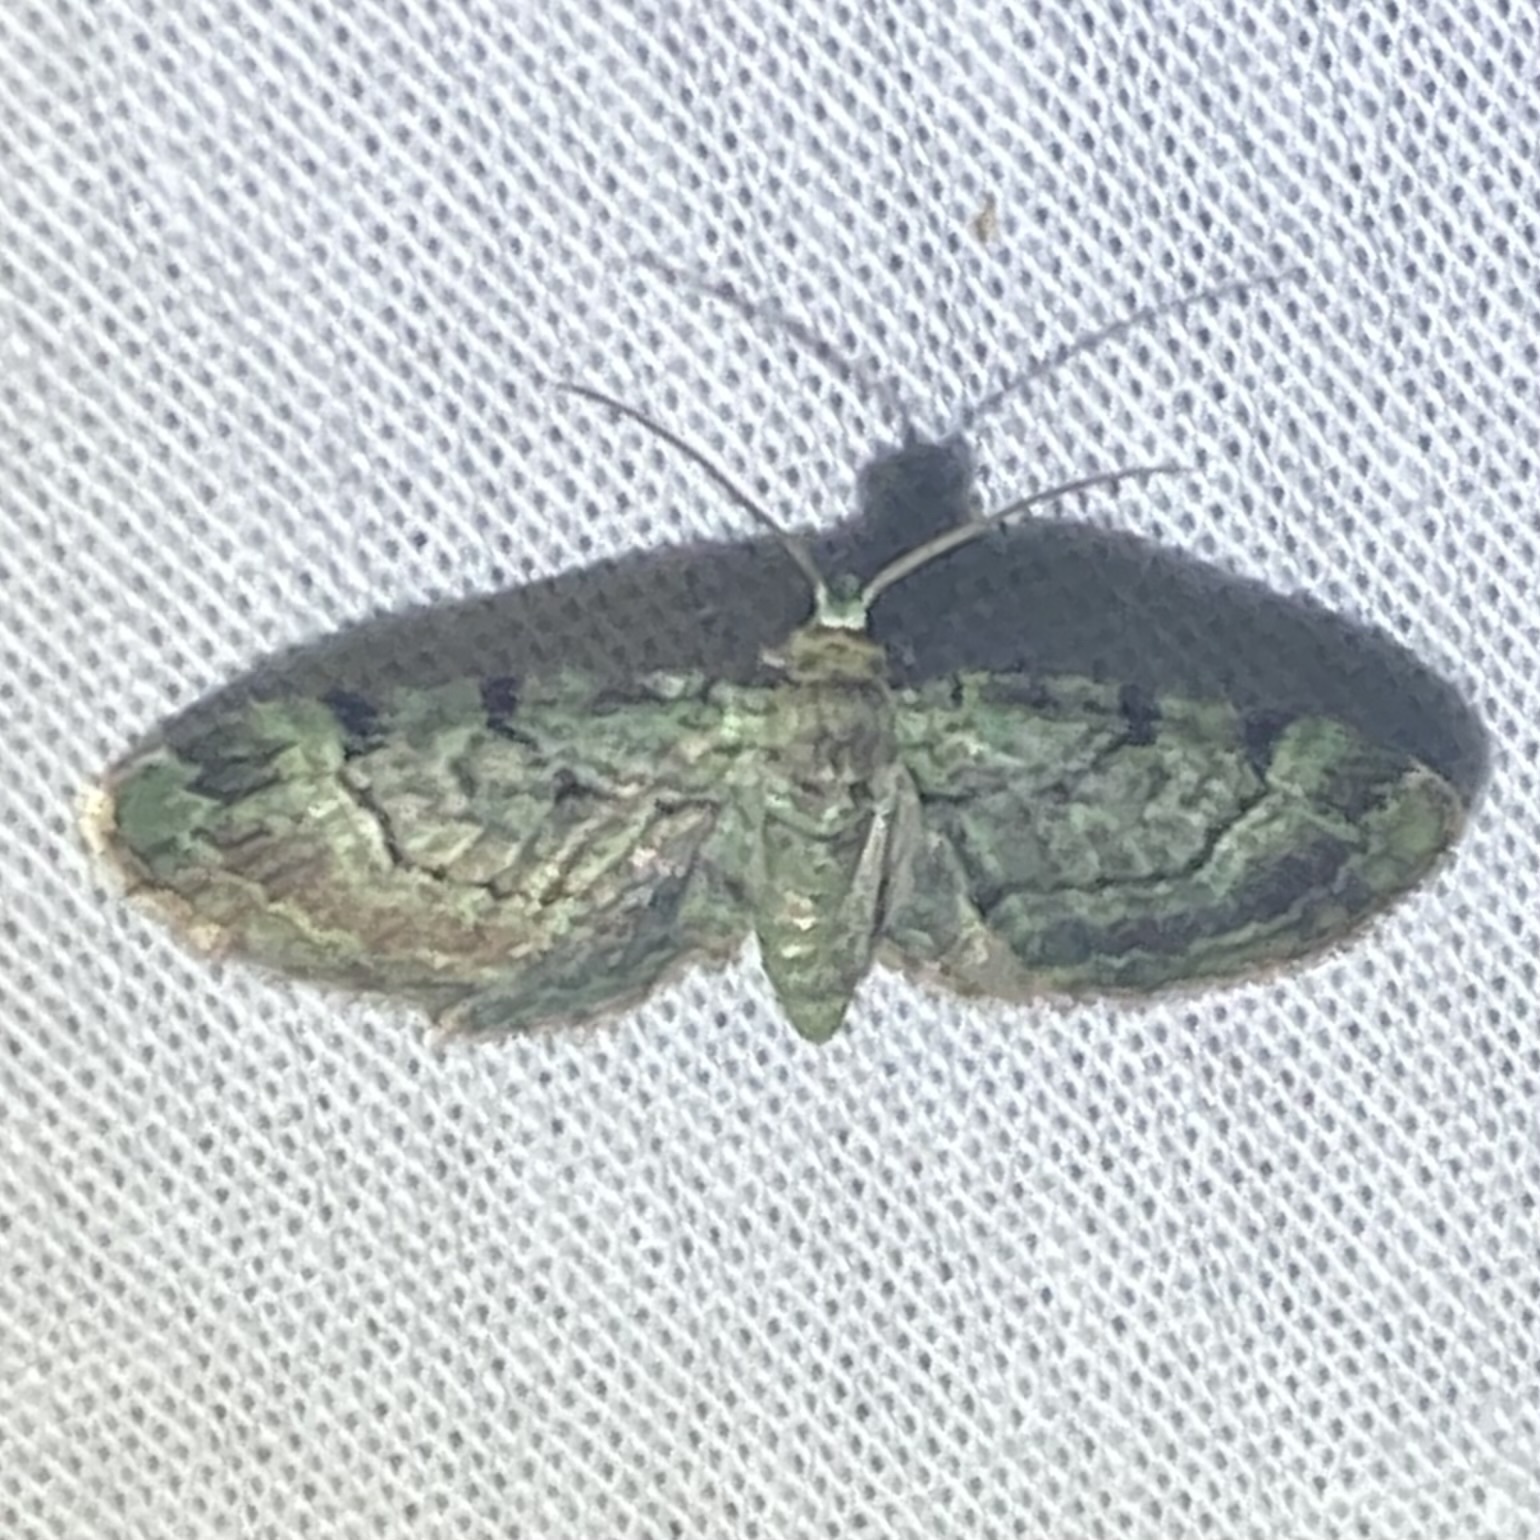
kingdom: Animalia
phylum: Arthropoda
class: Insecta
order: Lepidoptera
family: Geometridae
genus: Pasiphila
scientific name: Pasiphila rectangulata
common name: Green pug
